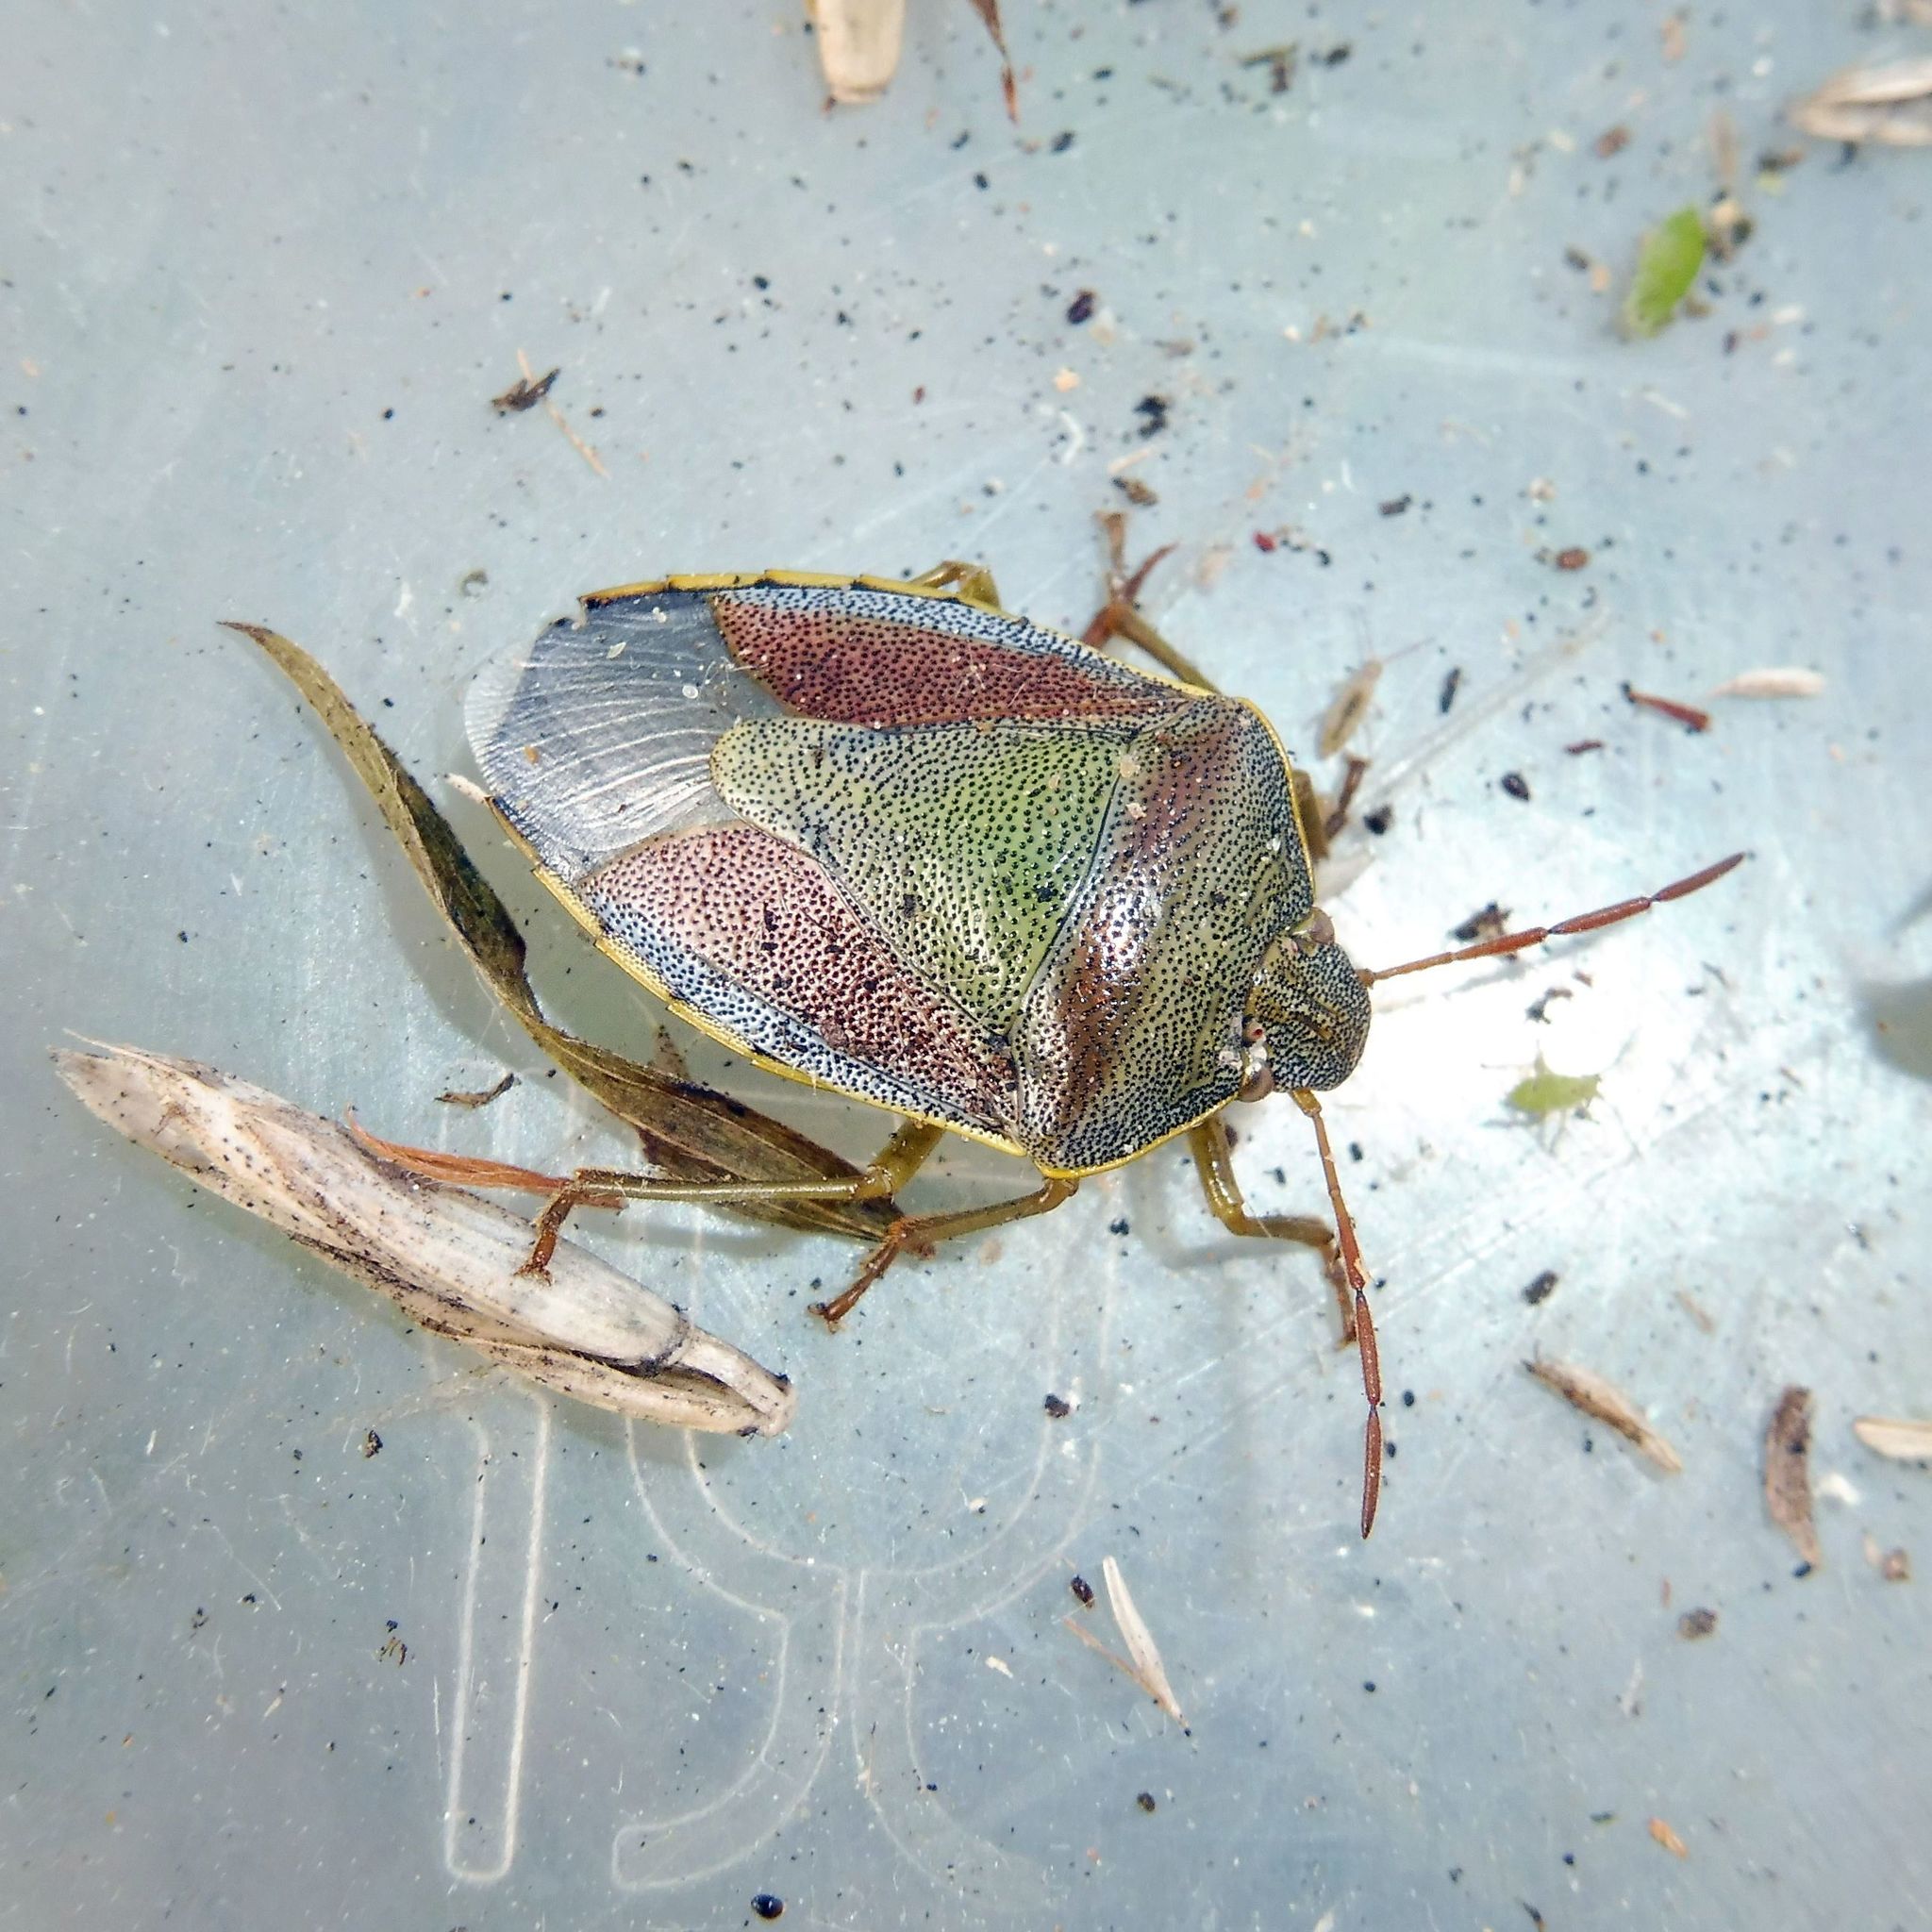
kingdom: Animalia
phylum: Arthropoda
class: Insecta
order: Hemiptera
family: Pentatomidae
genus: Piezodorus
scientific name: Piezodorus lituratus
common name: Stink bug
